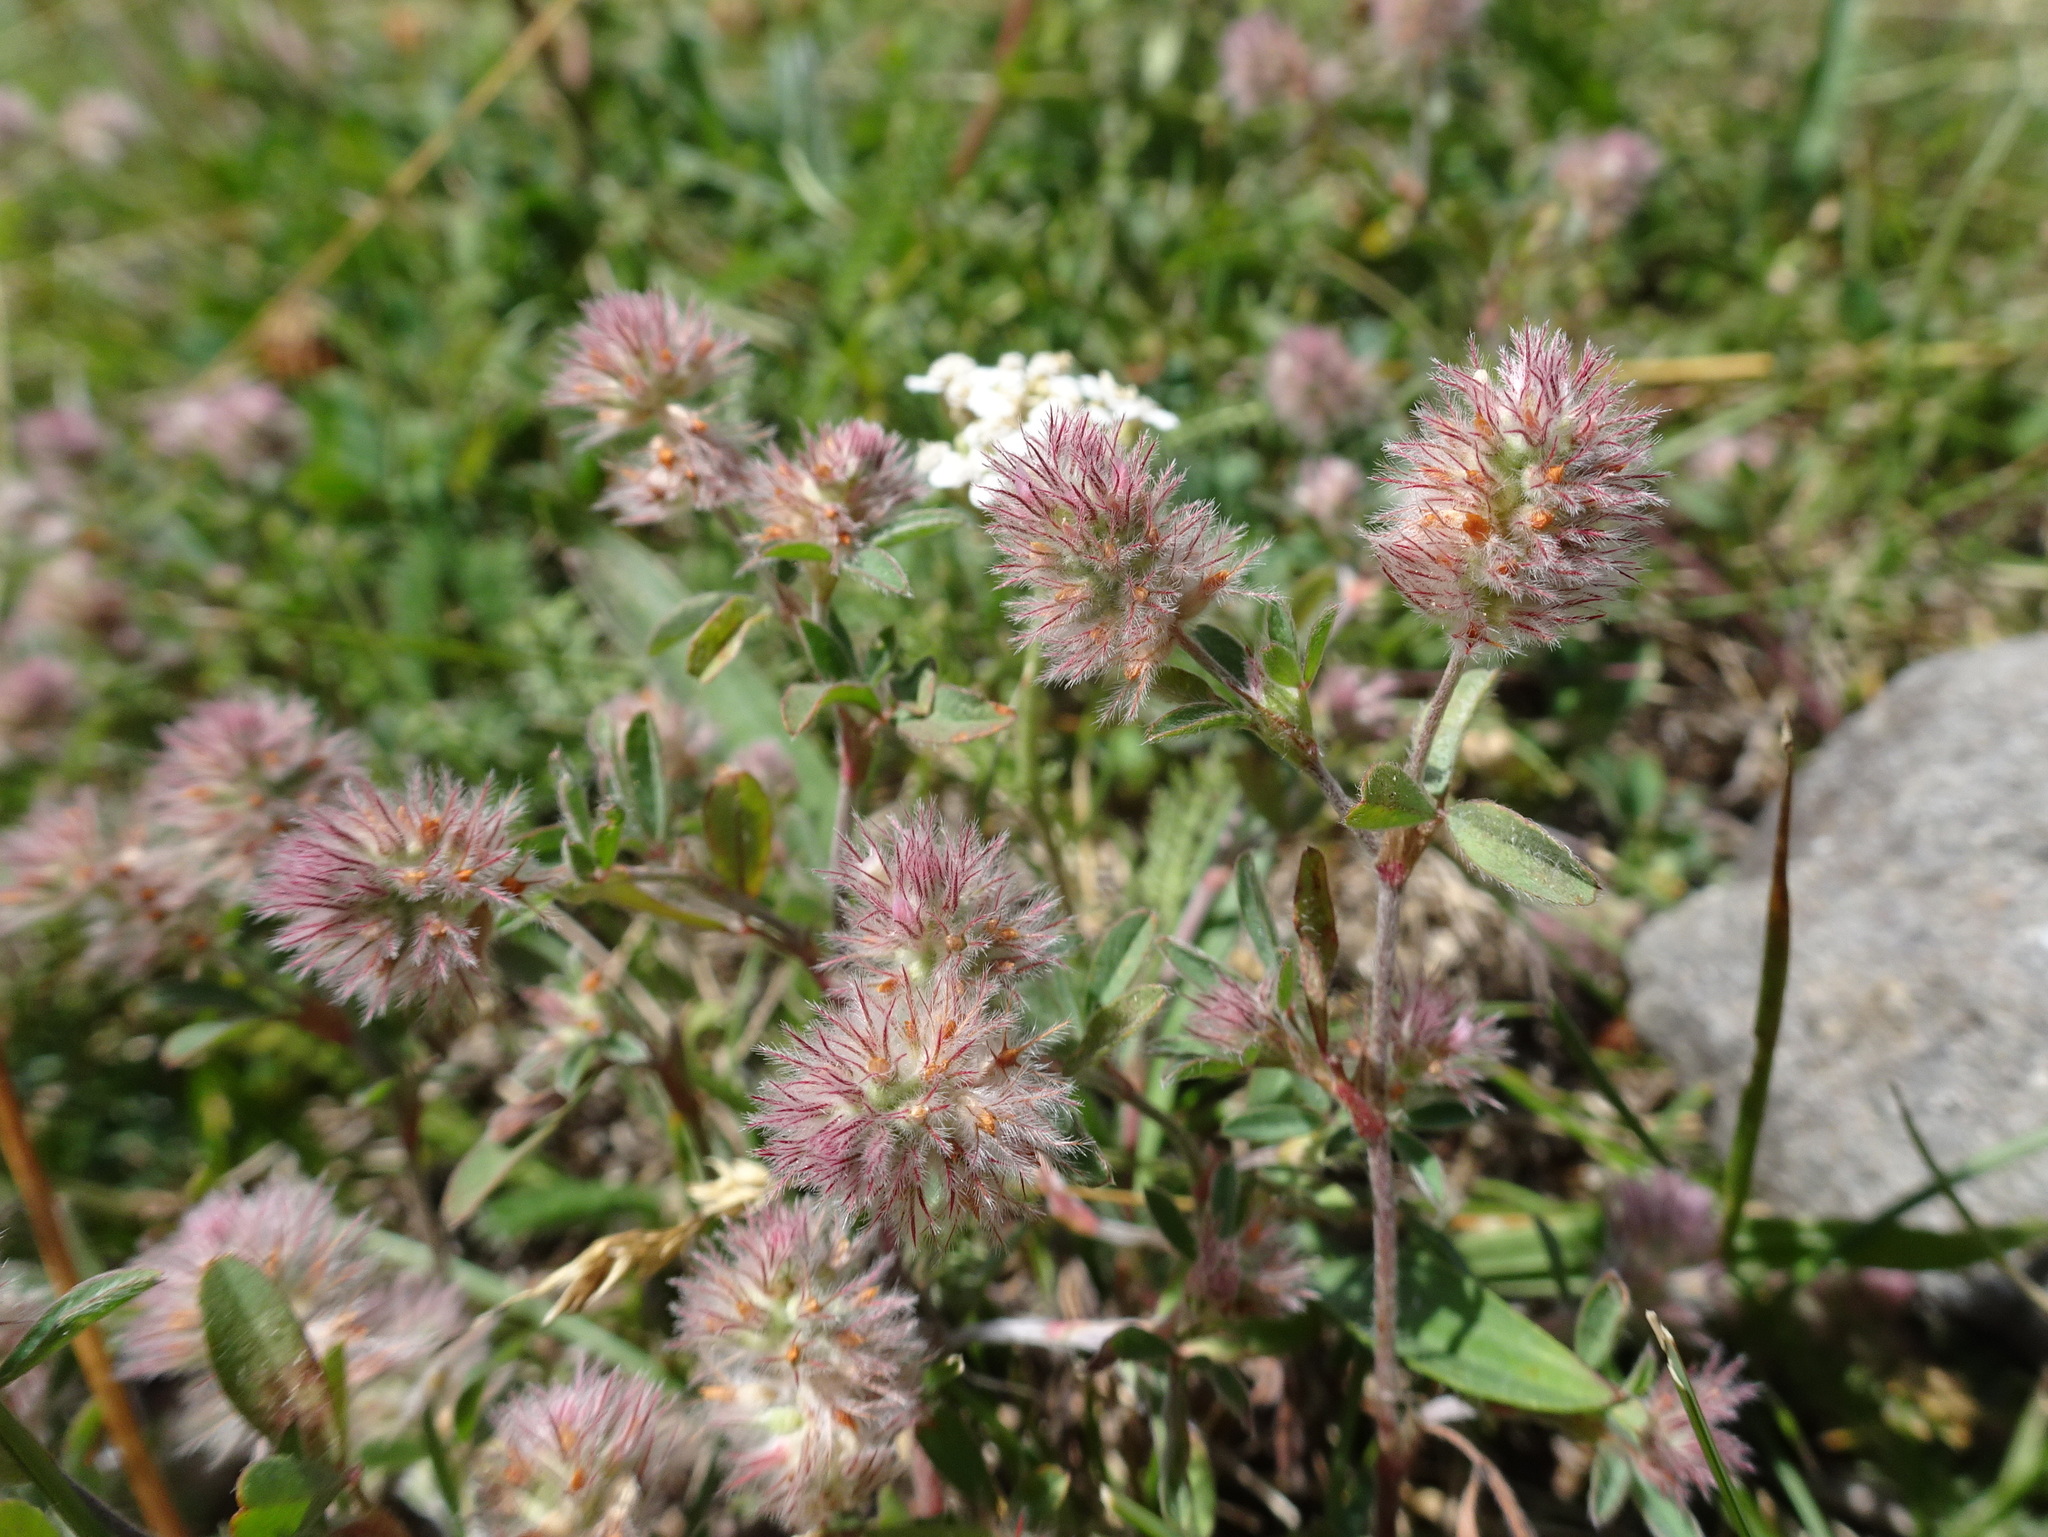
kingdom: Plantae
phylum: Tracheophyta
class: Magnoliopsida
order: Fabales
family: Fabaceae
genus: Trifolium
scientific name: Trifolium arvense
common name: Hare's-foot clover
